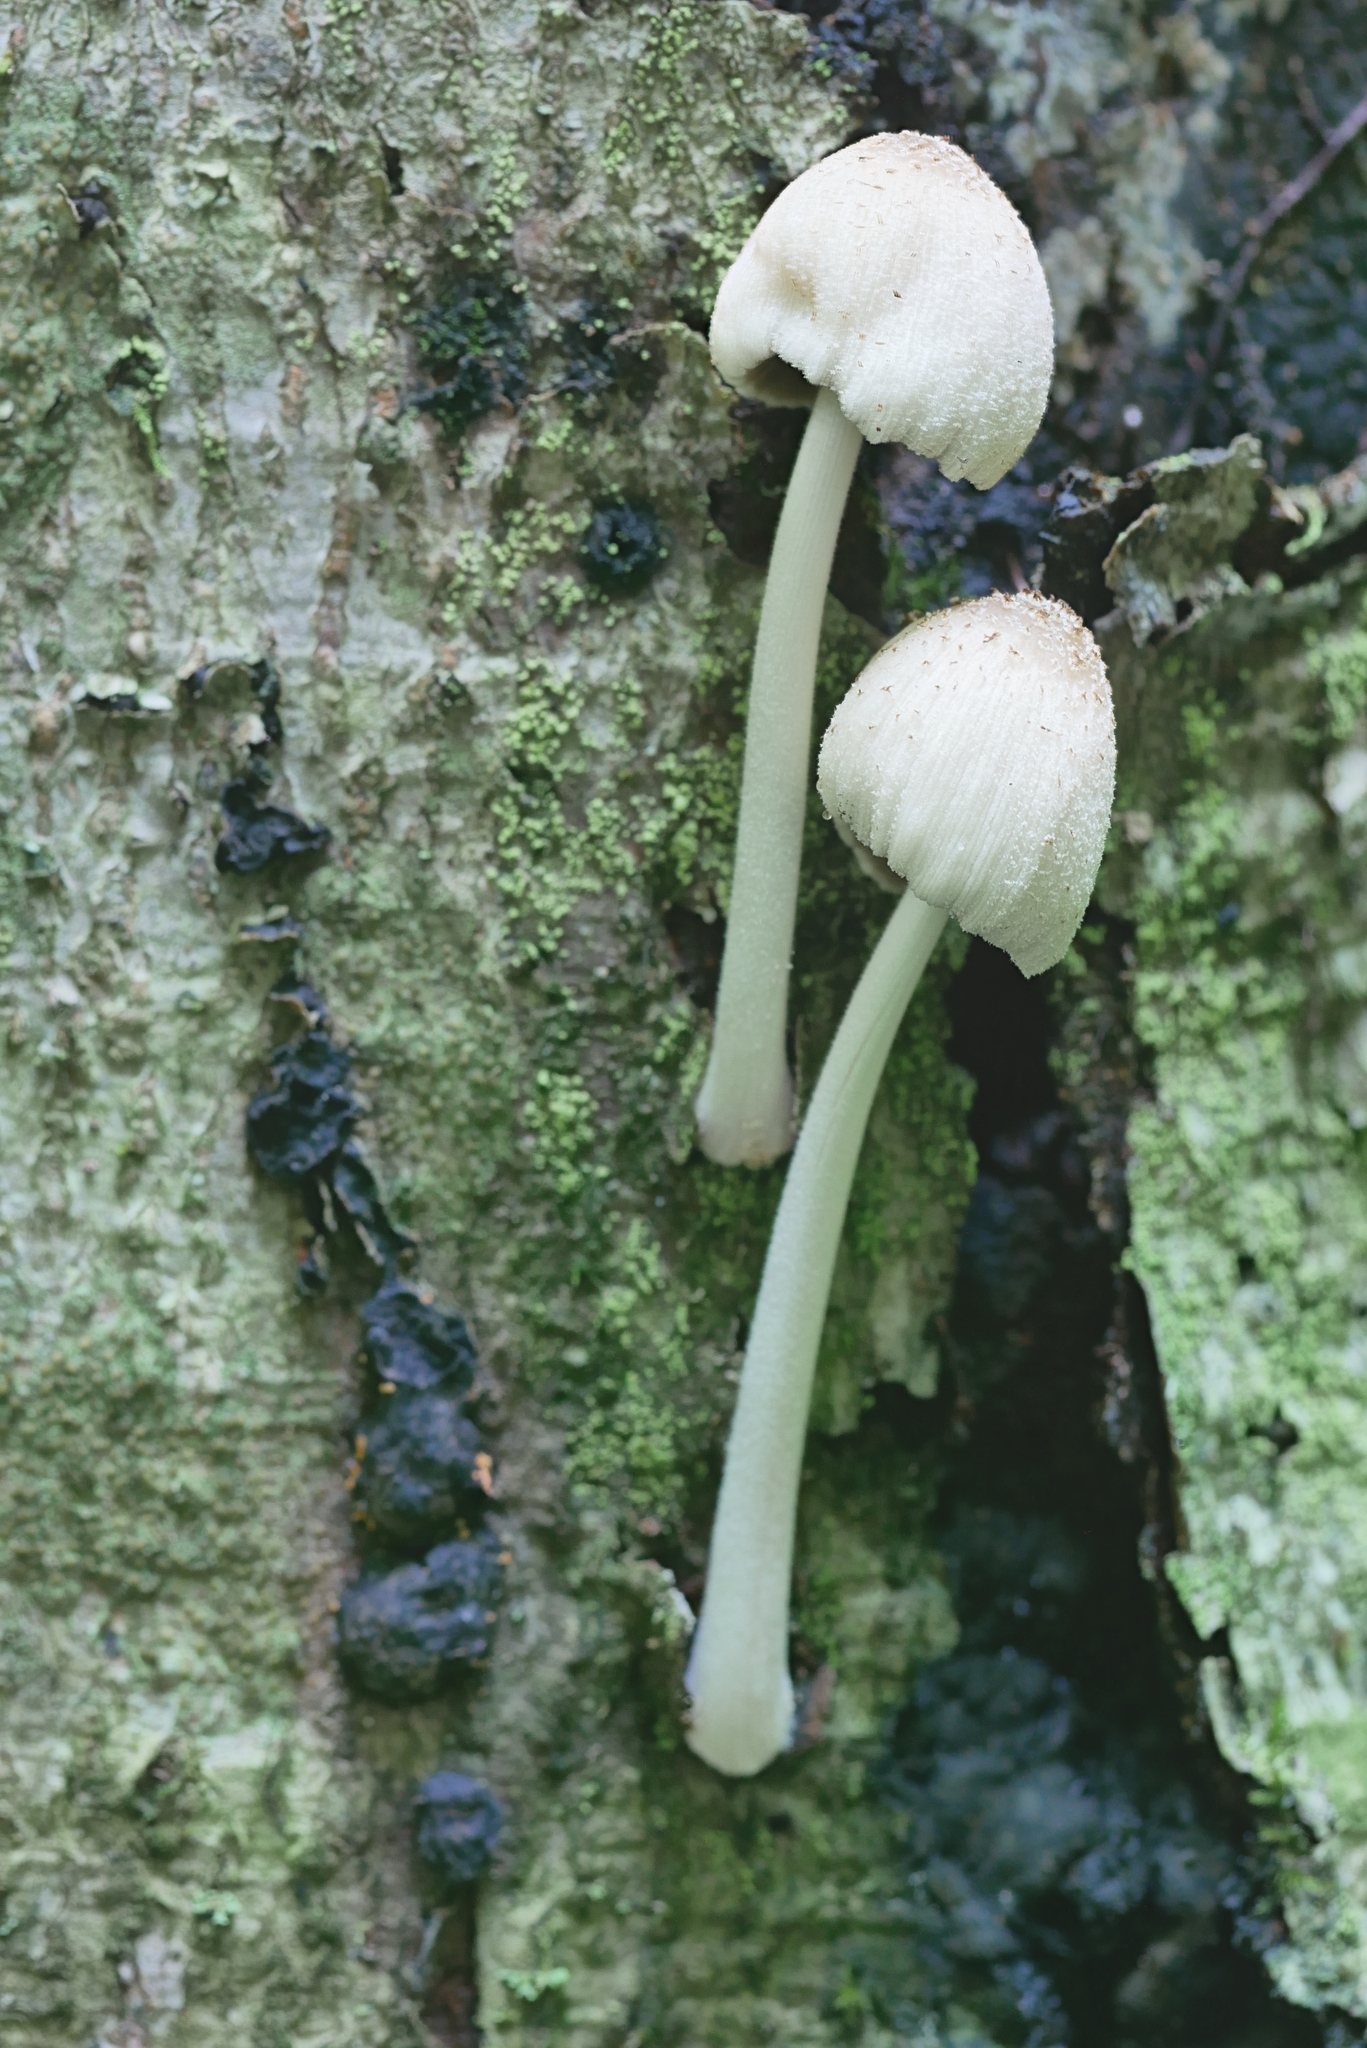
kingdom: Fungi
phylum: Basidiomycota
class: Agaricomycetes
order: Agaricales
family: Psathyrellaceae
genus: Coprinellus
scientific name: Coprinellus radians
